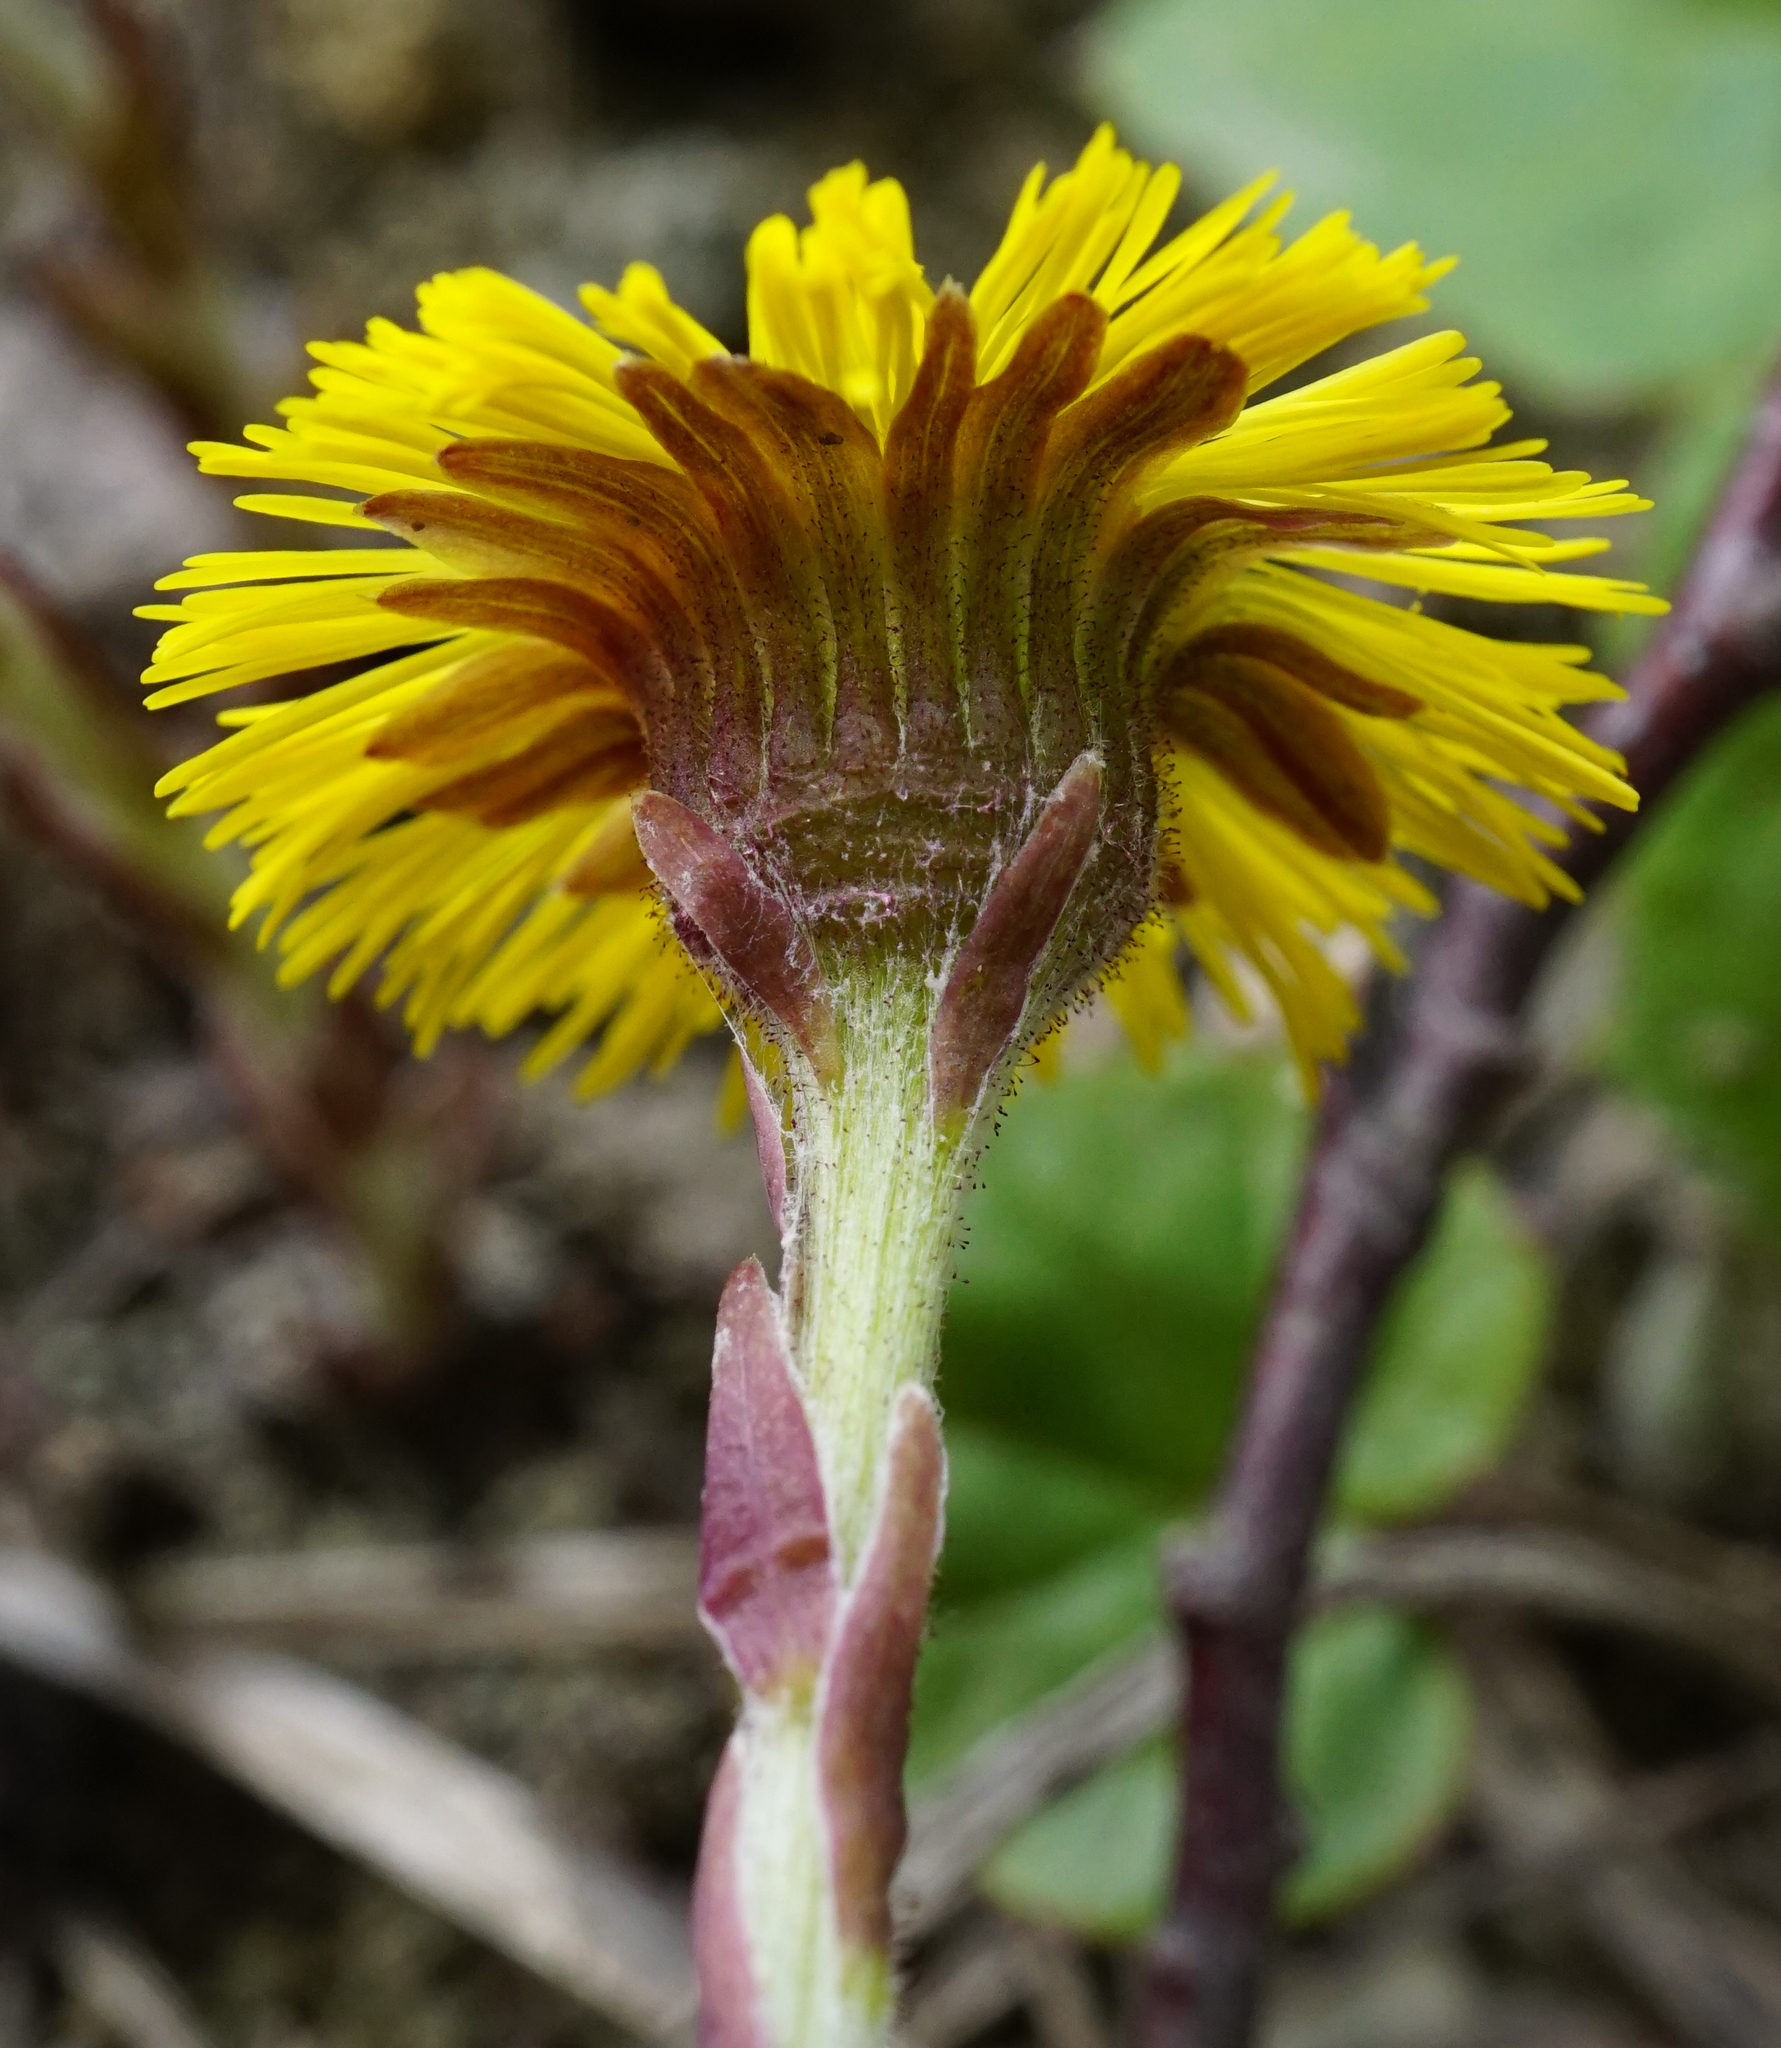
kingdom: Plantae
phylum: Tracheophyta
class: Magnoliopsida
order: Asterales
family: Asteraceae
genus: Tussilago
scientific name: Tussilago farfara
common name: Coltsfoot
